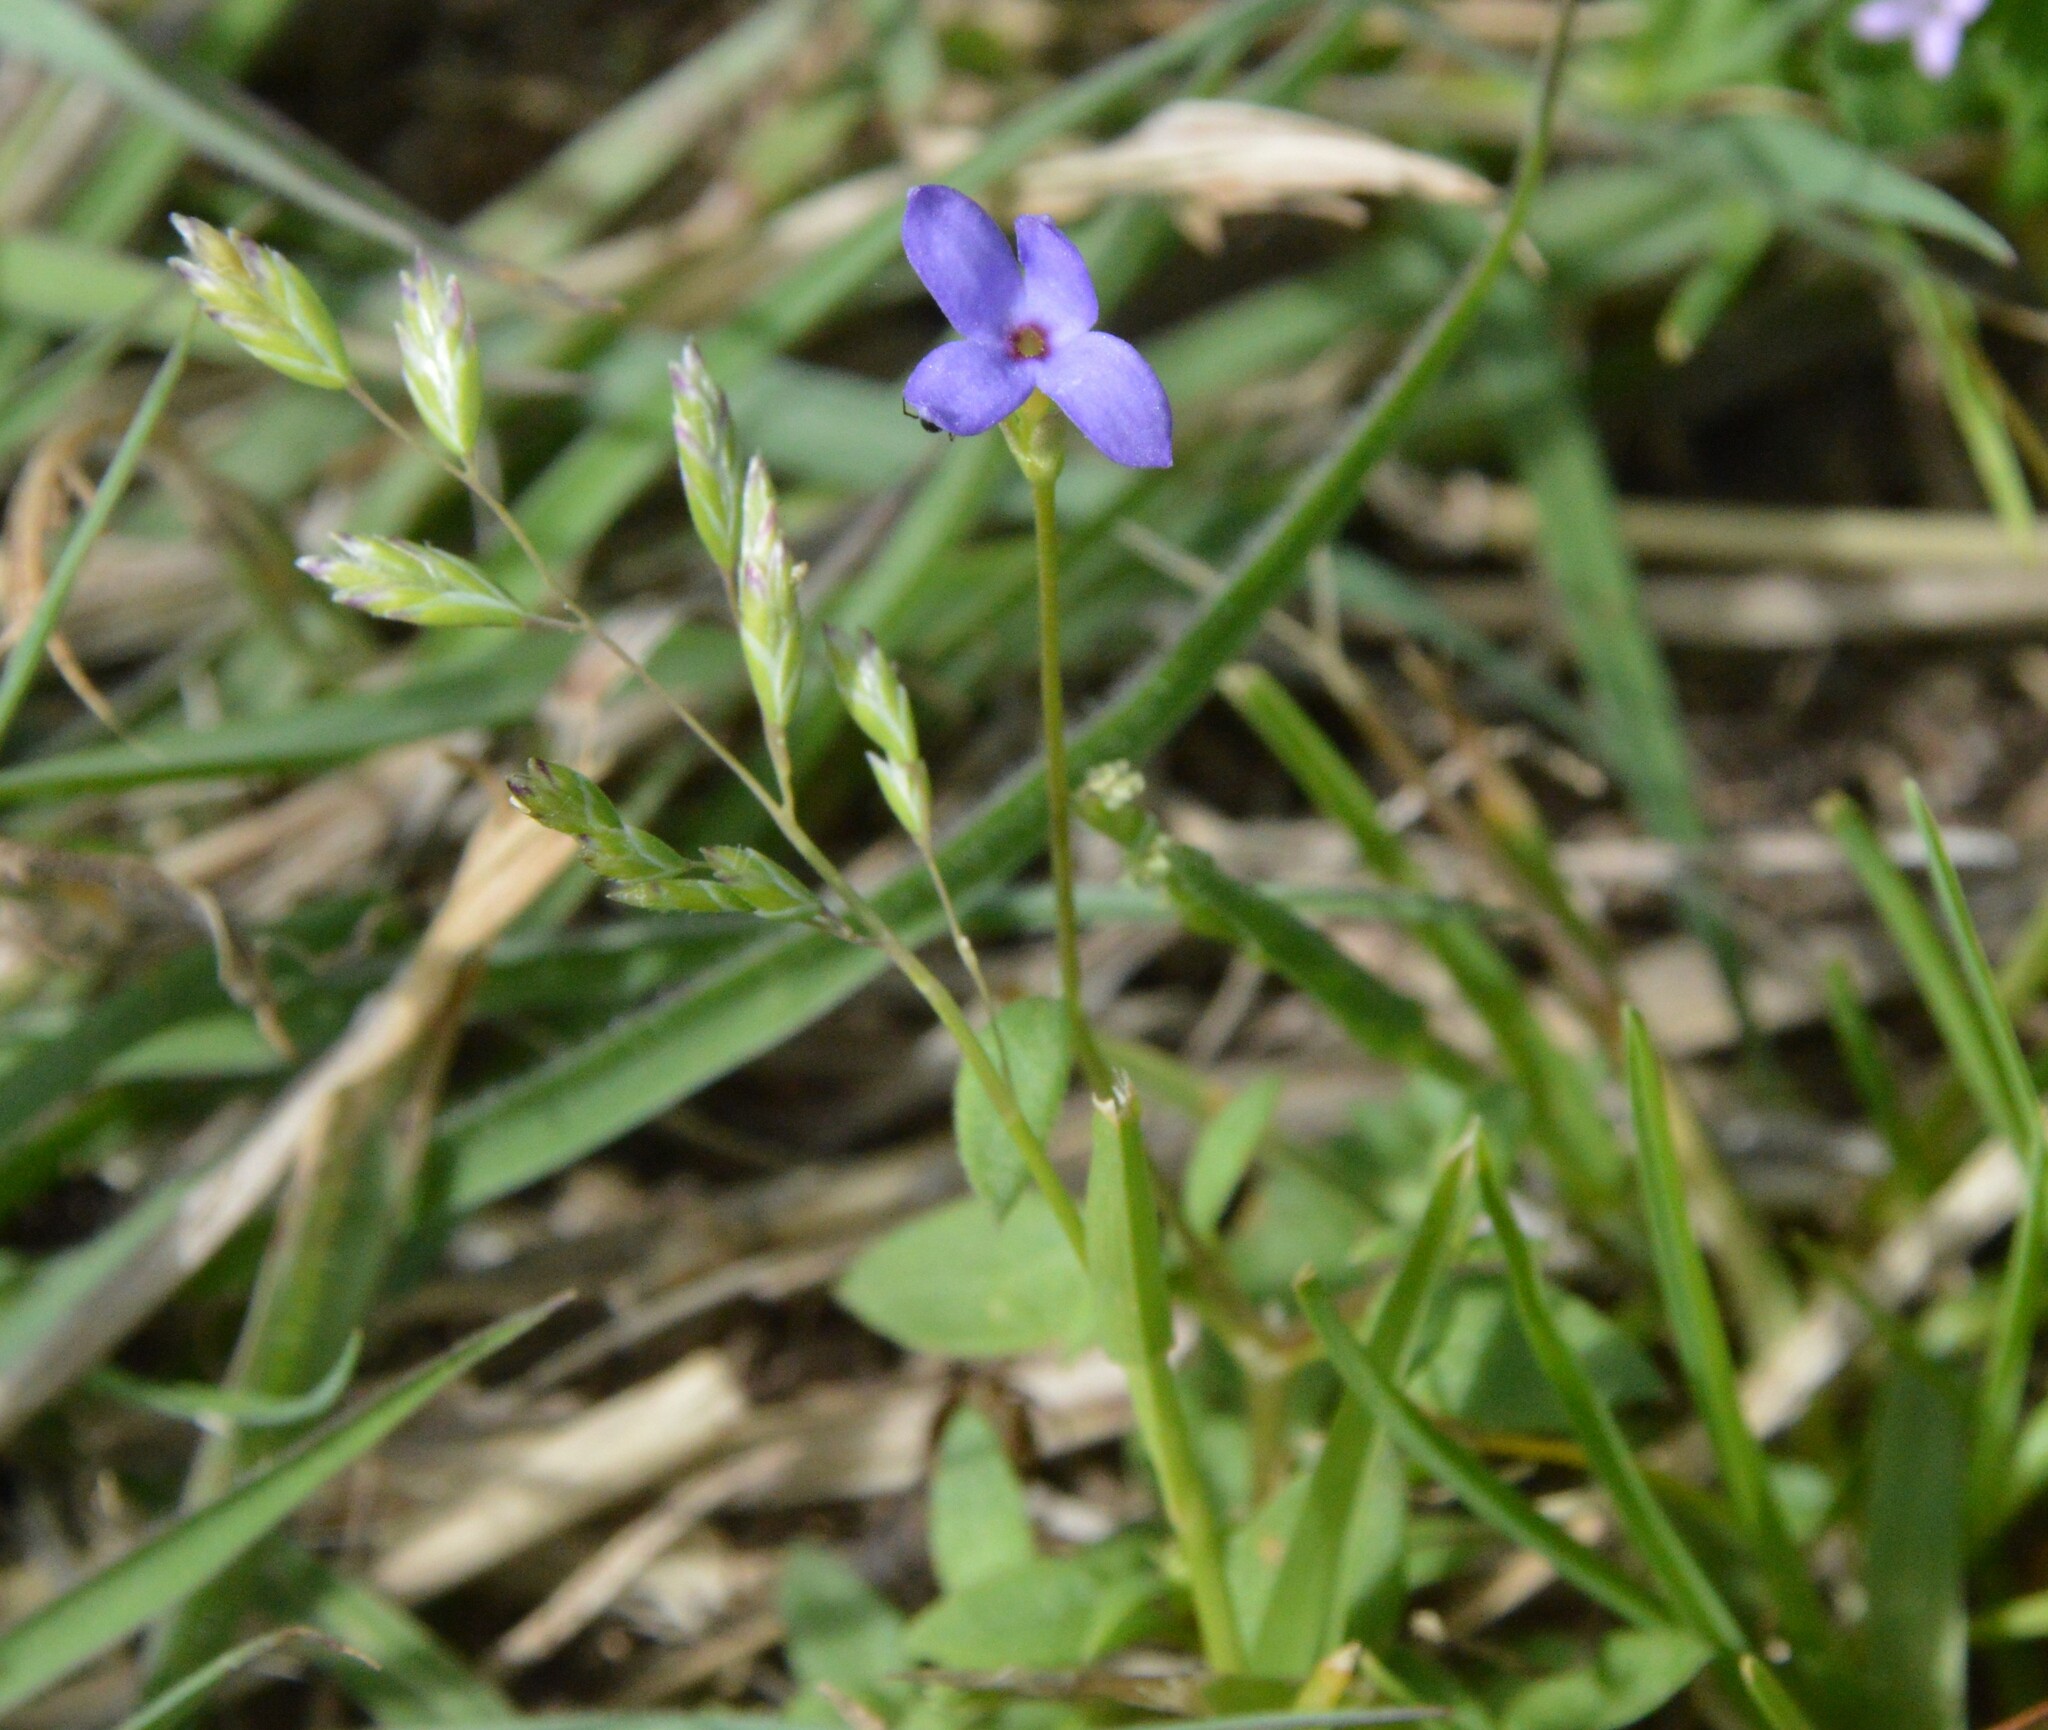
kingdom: Plantae
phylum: Tracheophyta
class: Magnoliopsida
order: Gentianales
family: Rubiaceae
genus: Houstonia
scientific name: Houstonia pusilla
